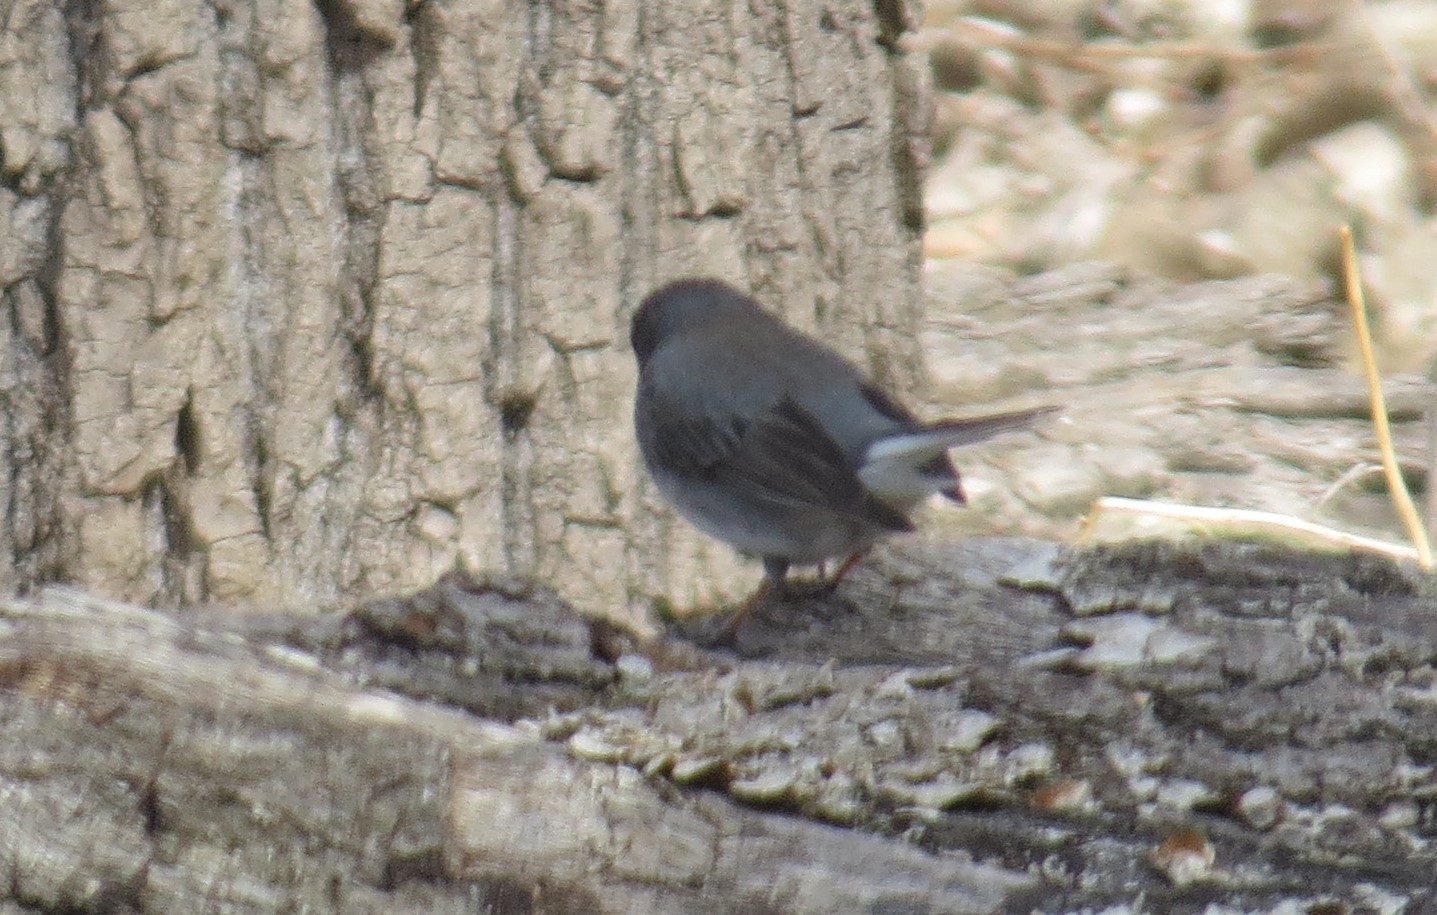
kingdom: Animalia
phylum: Chordata
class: Aves
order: Passeriformes
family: Passerellidae
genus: Junco
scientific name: Junco hyemalis
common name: Dark-eyed junco
